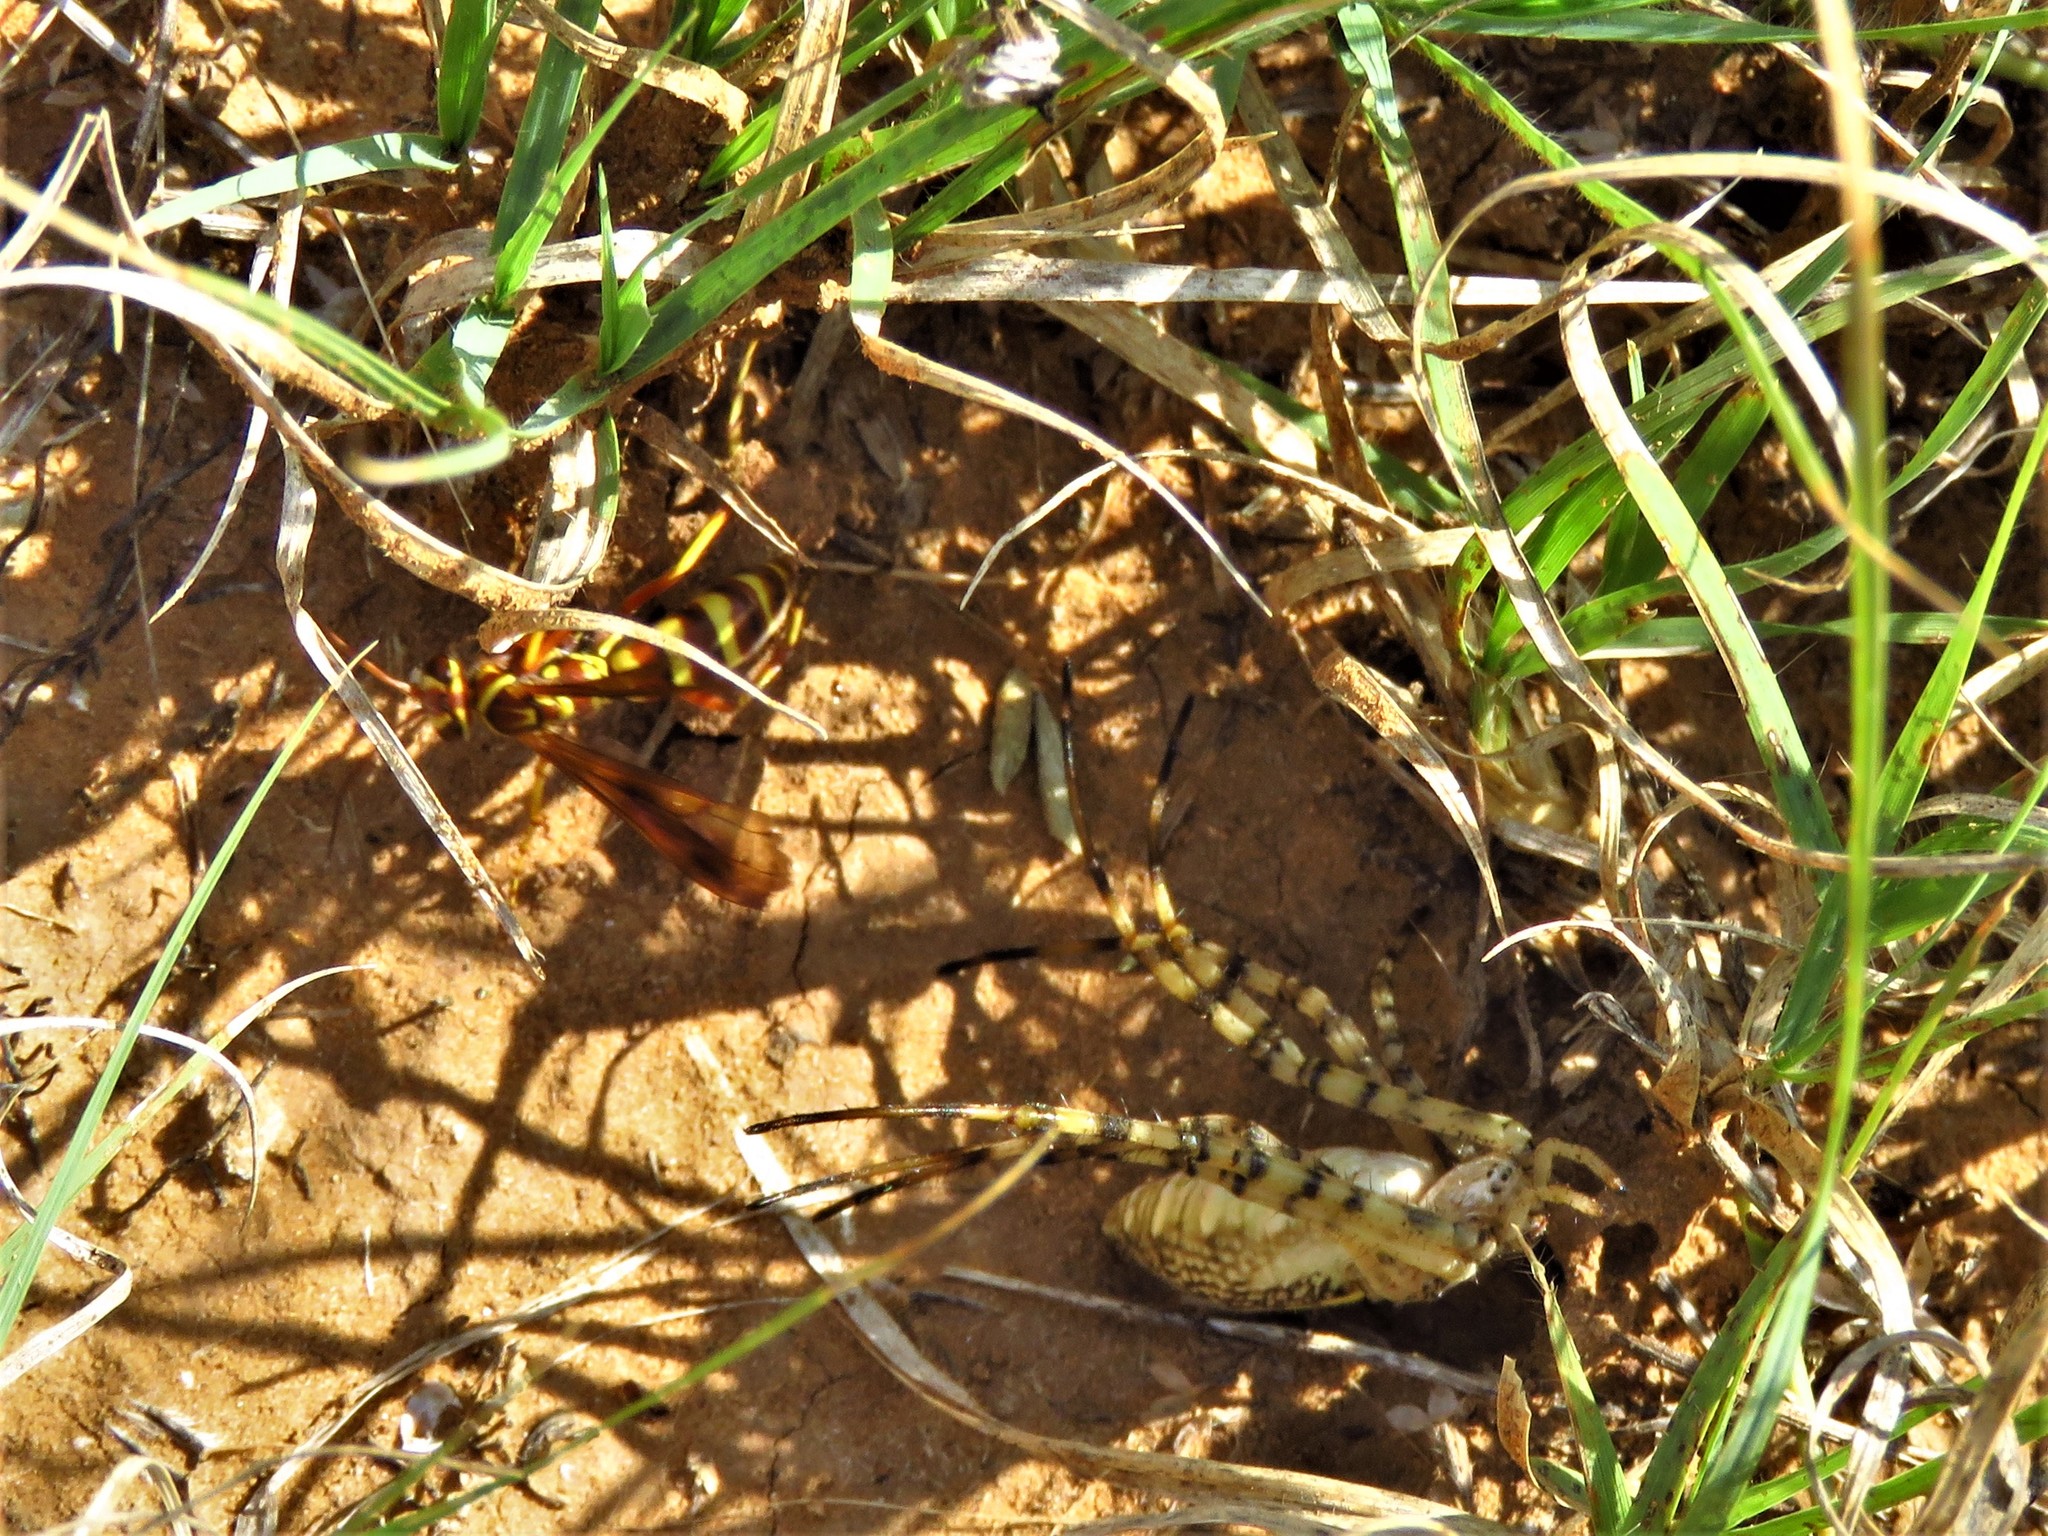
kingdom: Animalia
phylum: Arthropoda
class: Insecta
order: Hymenoptera
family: Pompilidae
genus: Poecilopompilus
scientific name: Poecilopompilus interruptus
